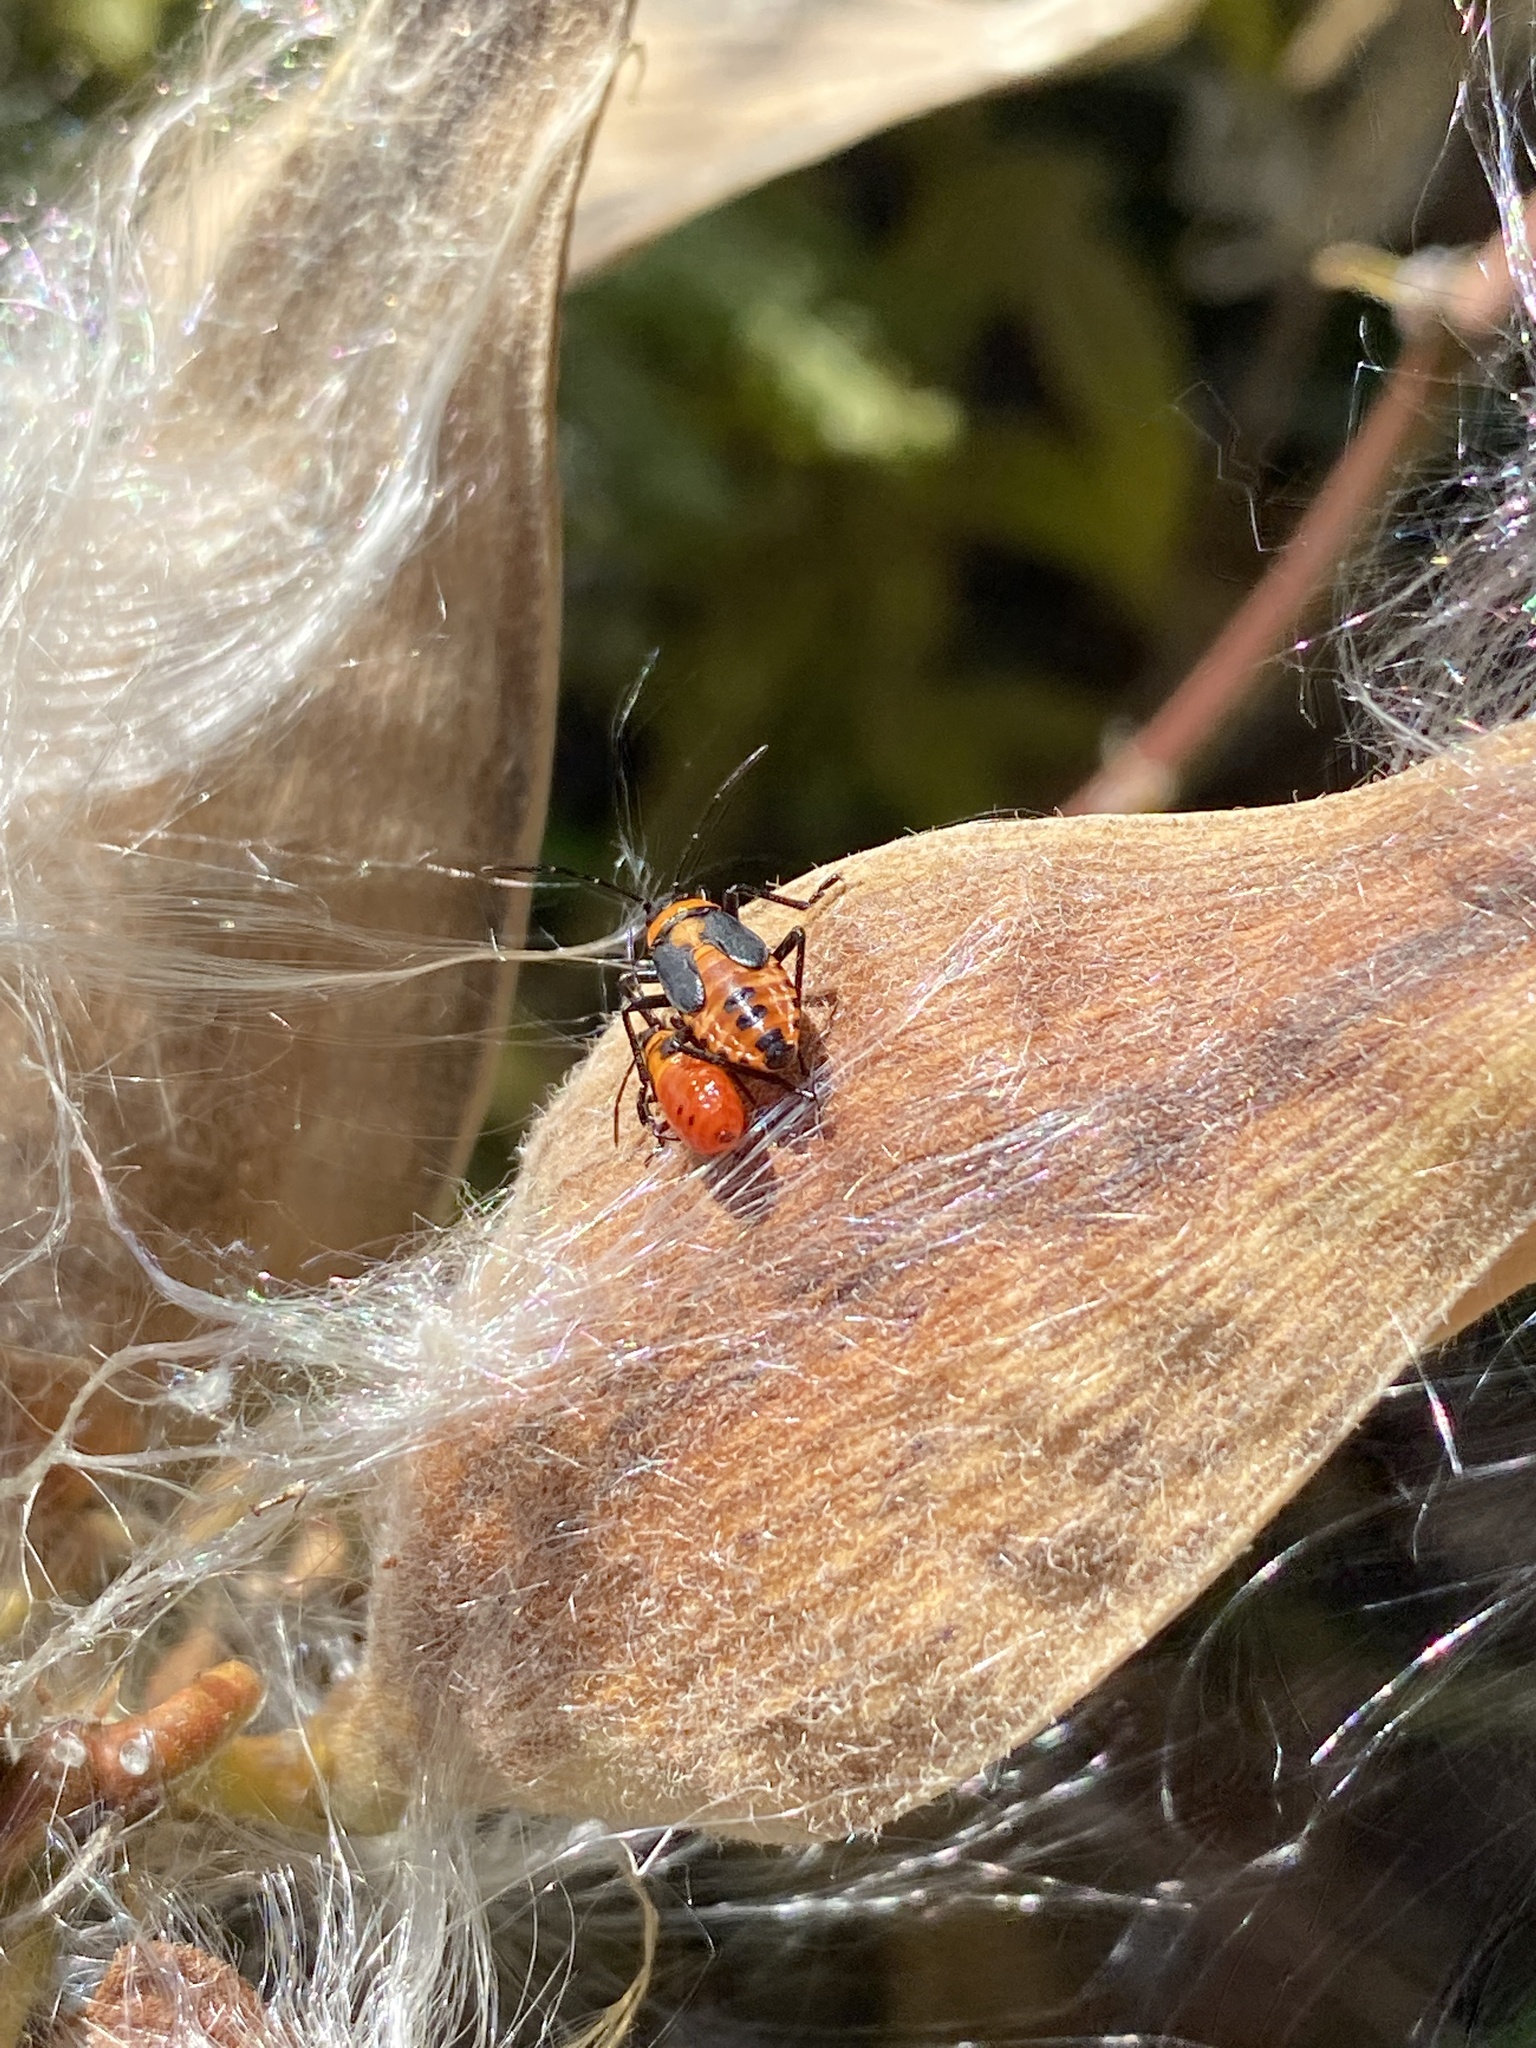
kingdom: Animalia
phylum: Arthropoda
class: Insecta
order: Hemiptera
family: Lygaeidae
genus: Oncopeltus
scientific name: Oncopeltus fasciatus
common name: Large milkweed bug
